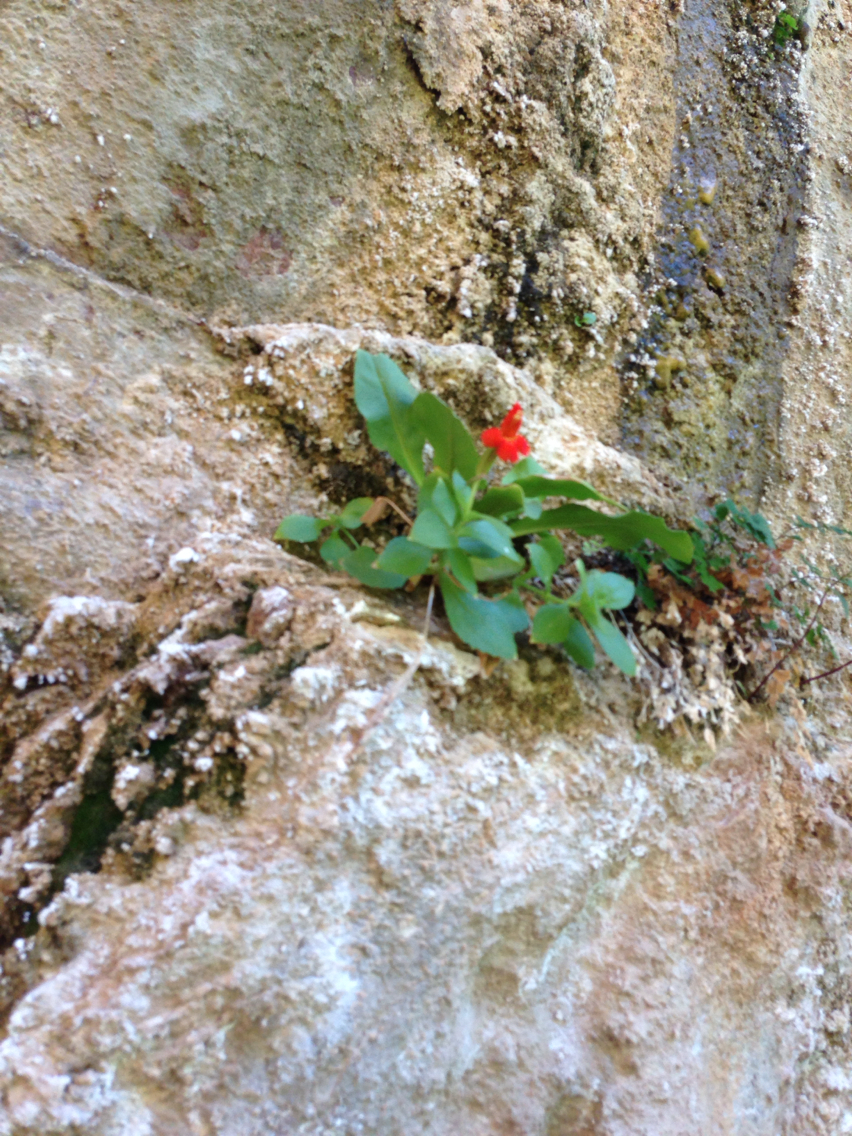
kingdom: Plantae
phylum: Tracheophyta
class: Magnoliopsida
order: Lamiales
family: Phrymaceae
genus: Erythranthe
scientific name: Erythranthe verbenacea
